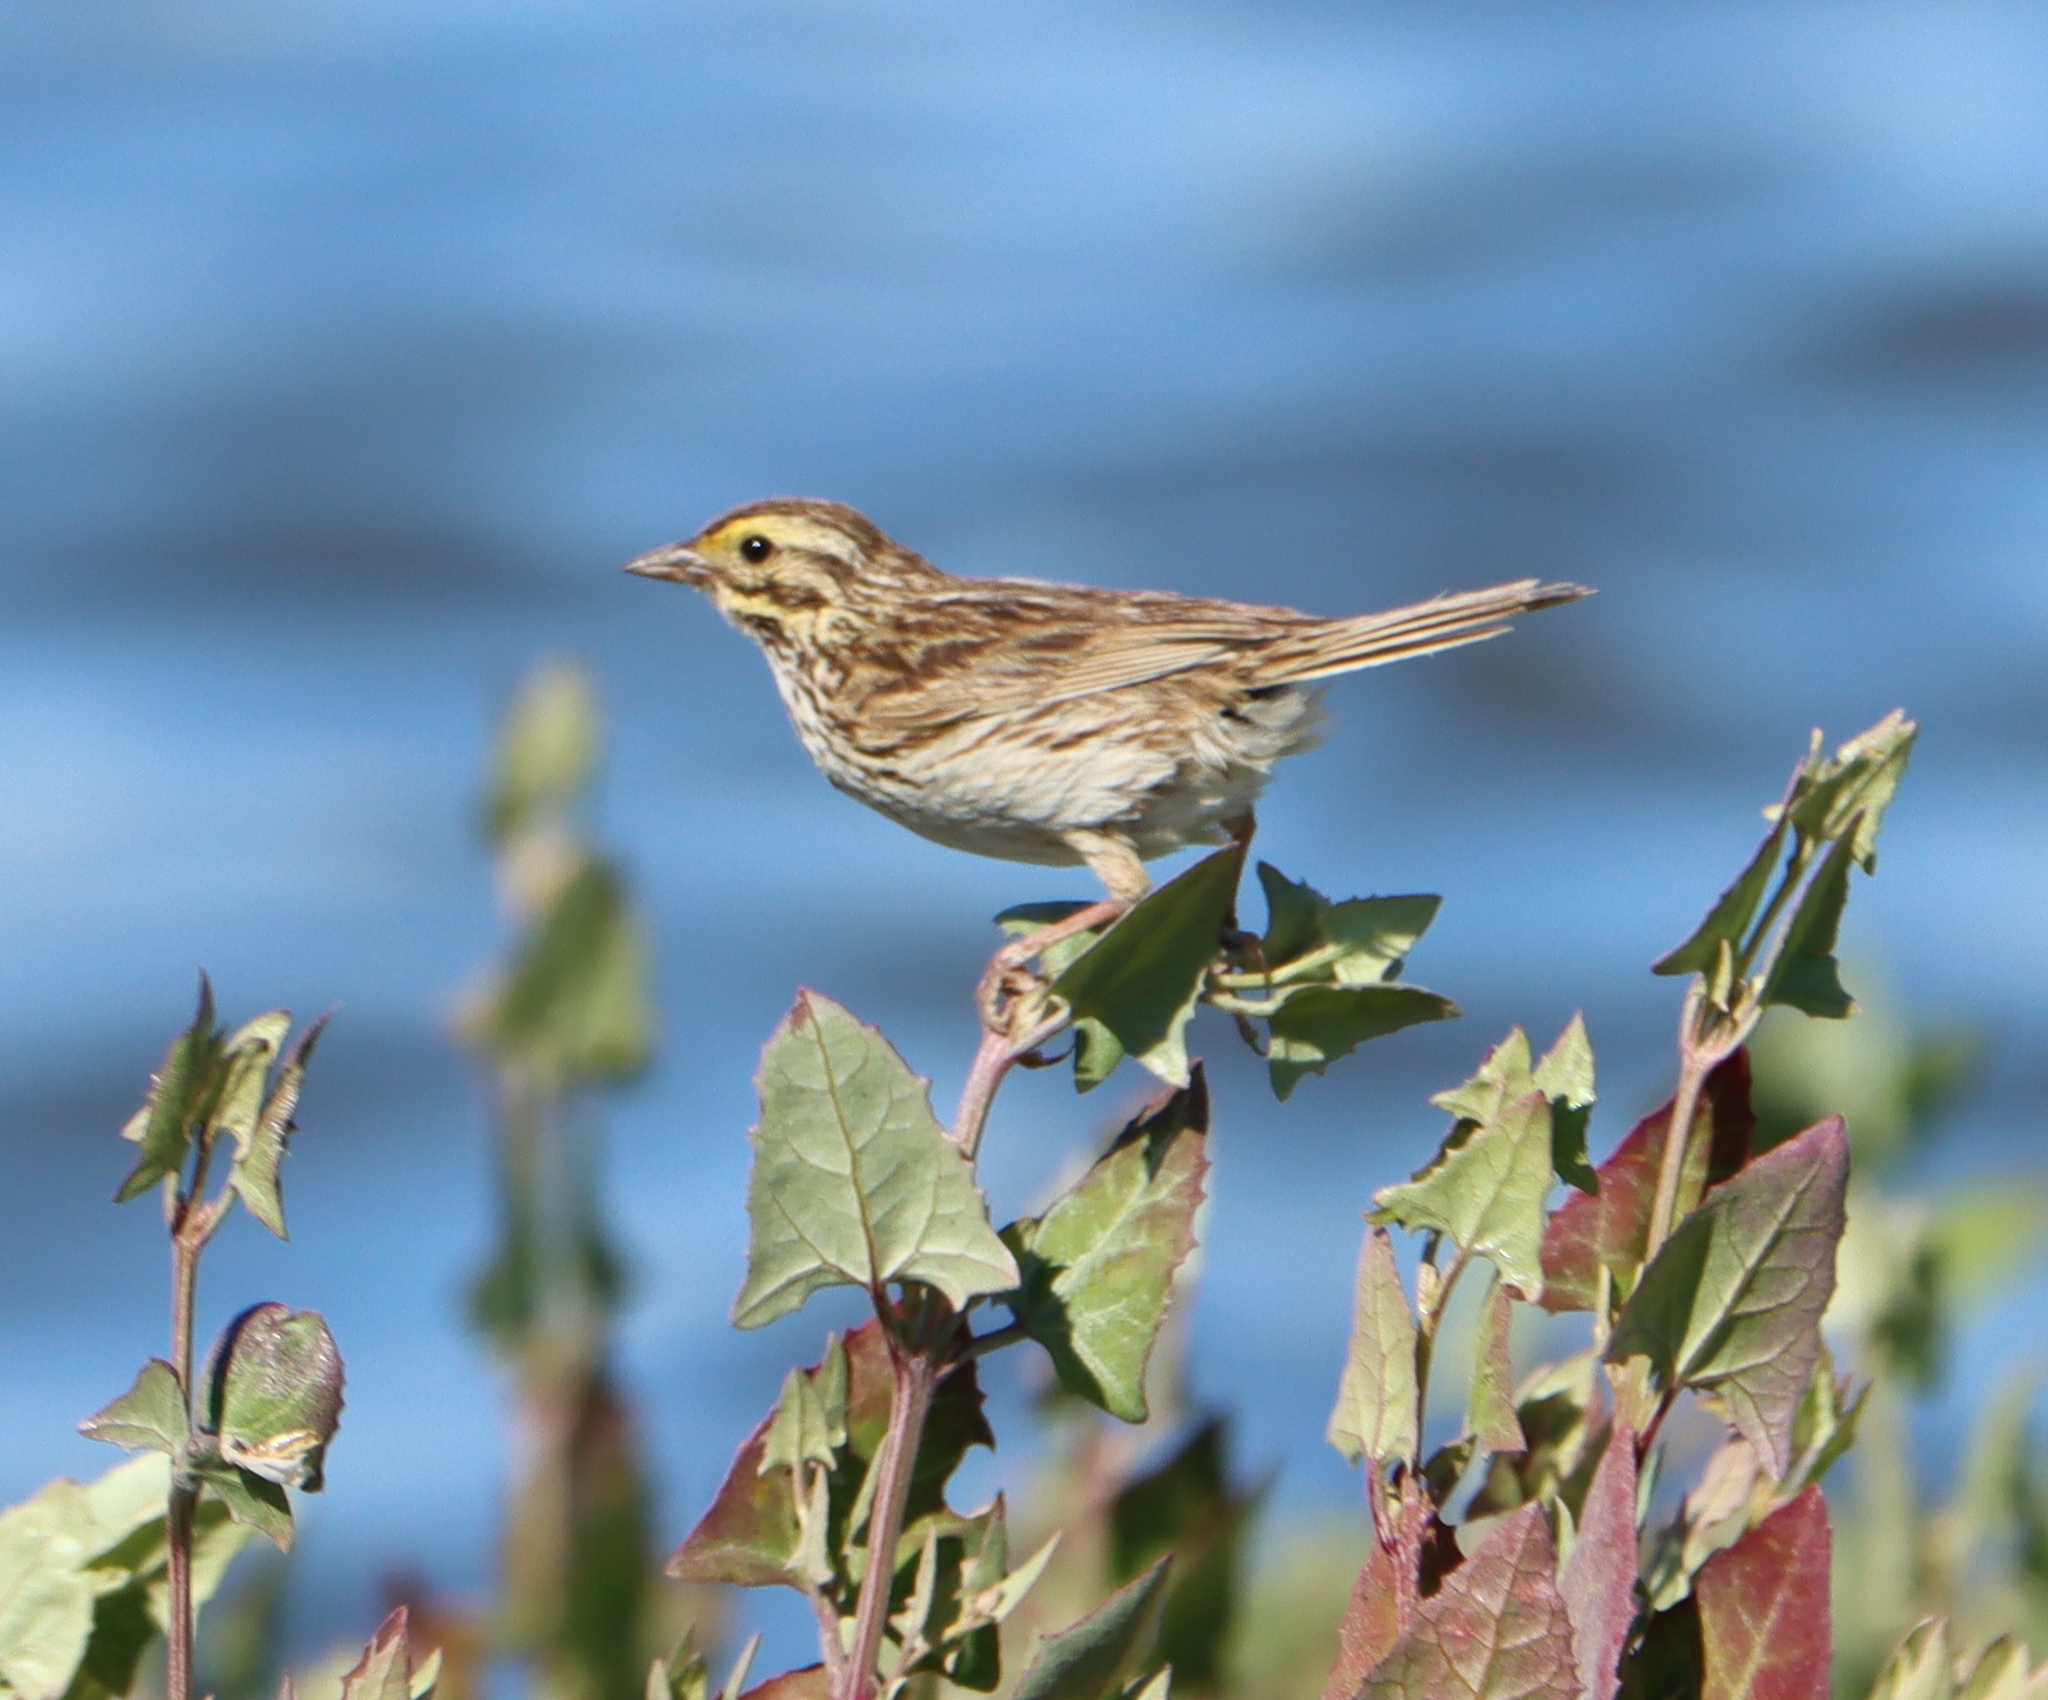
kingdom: Animalia
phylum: Chordata
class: Aves
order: Passeriformes
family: Passerellidae
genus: Passerculus
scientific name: Passerculus sandwichensis
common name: Savannah sparrow
